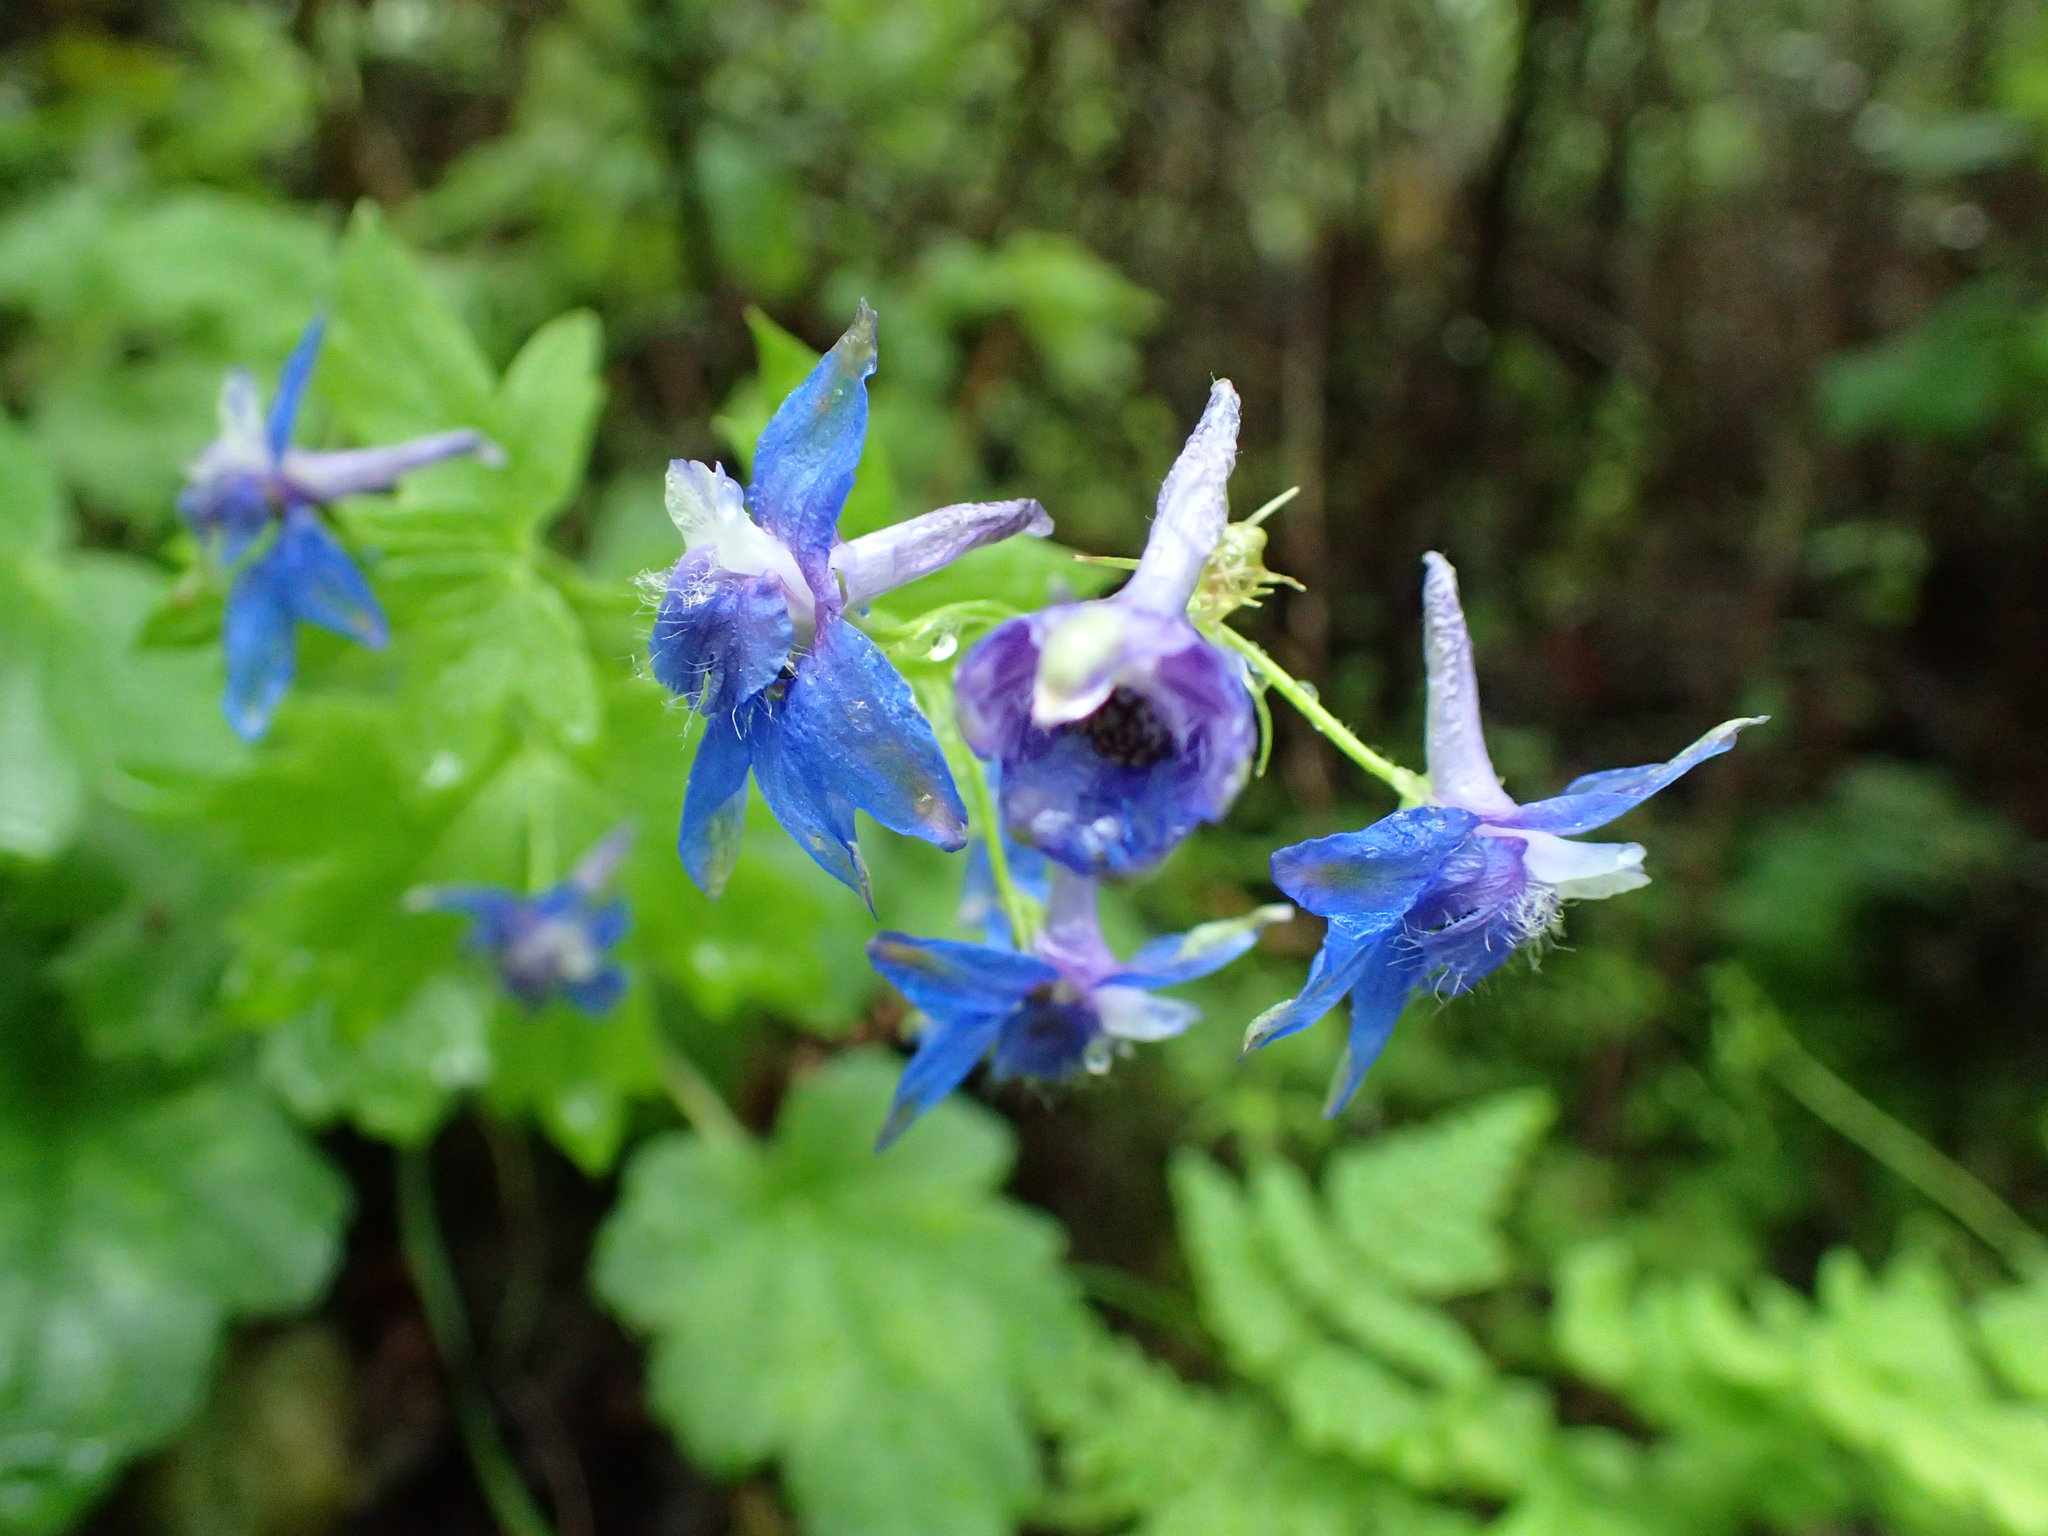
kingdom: Plantae
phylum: Tracheophyta
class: Magnoliopsida
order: Ranunculales
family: Ranunculaceae
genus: Delphinium
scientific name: Delphinium bakeri
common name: Baker's larkspur
